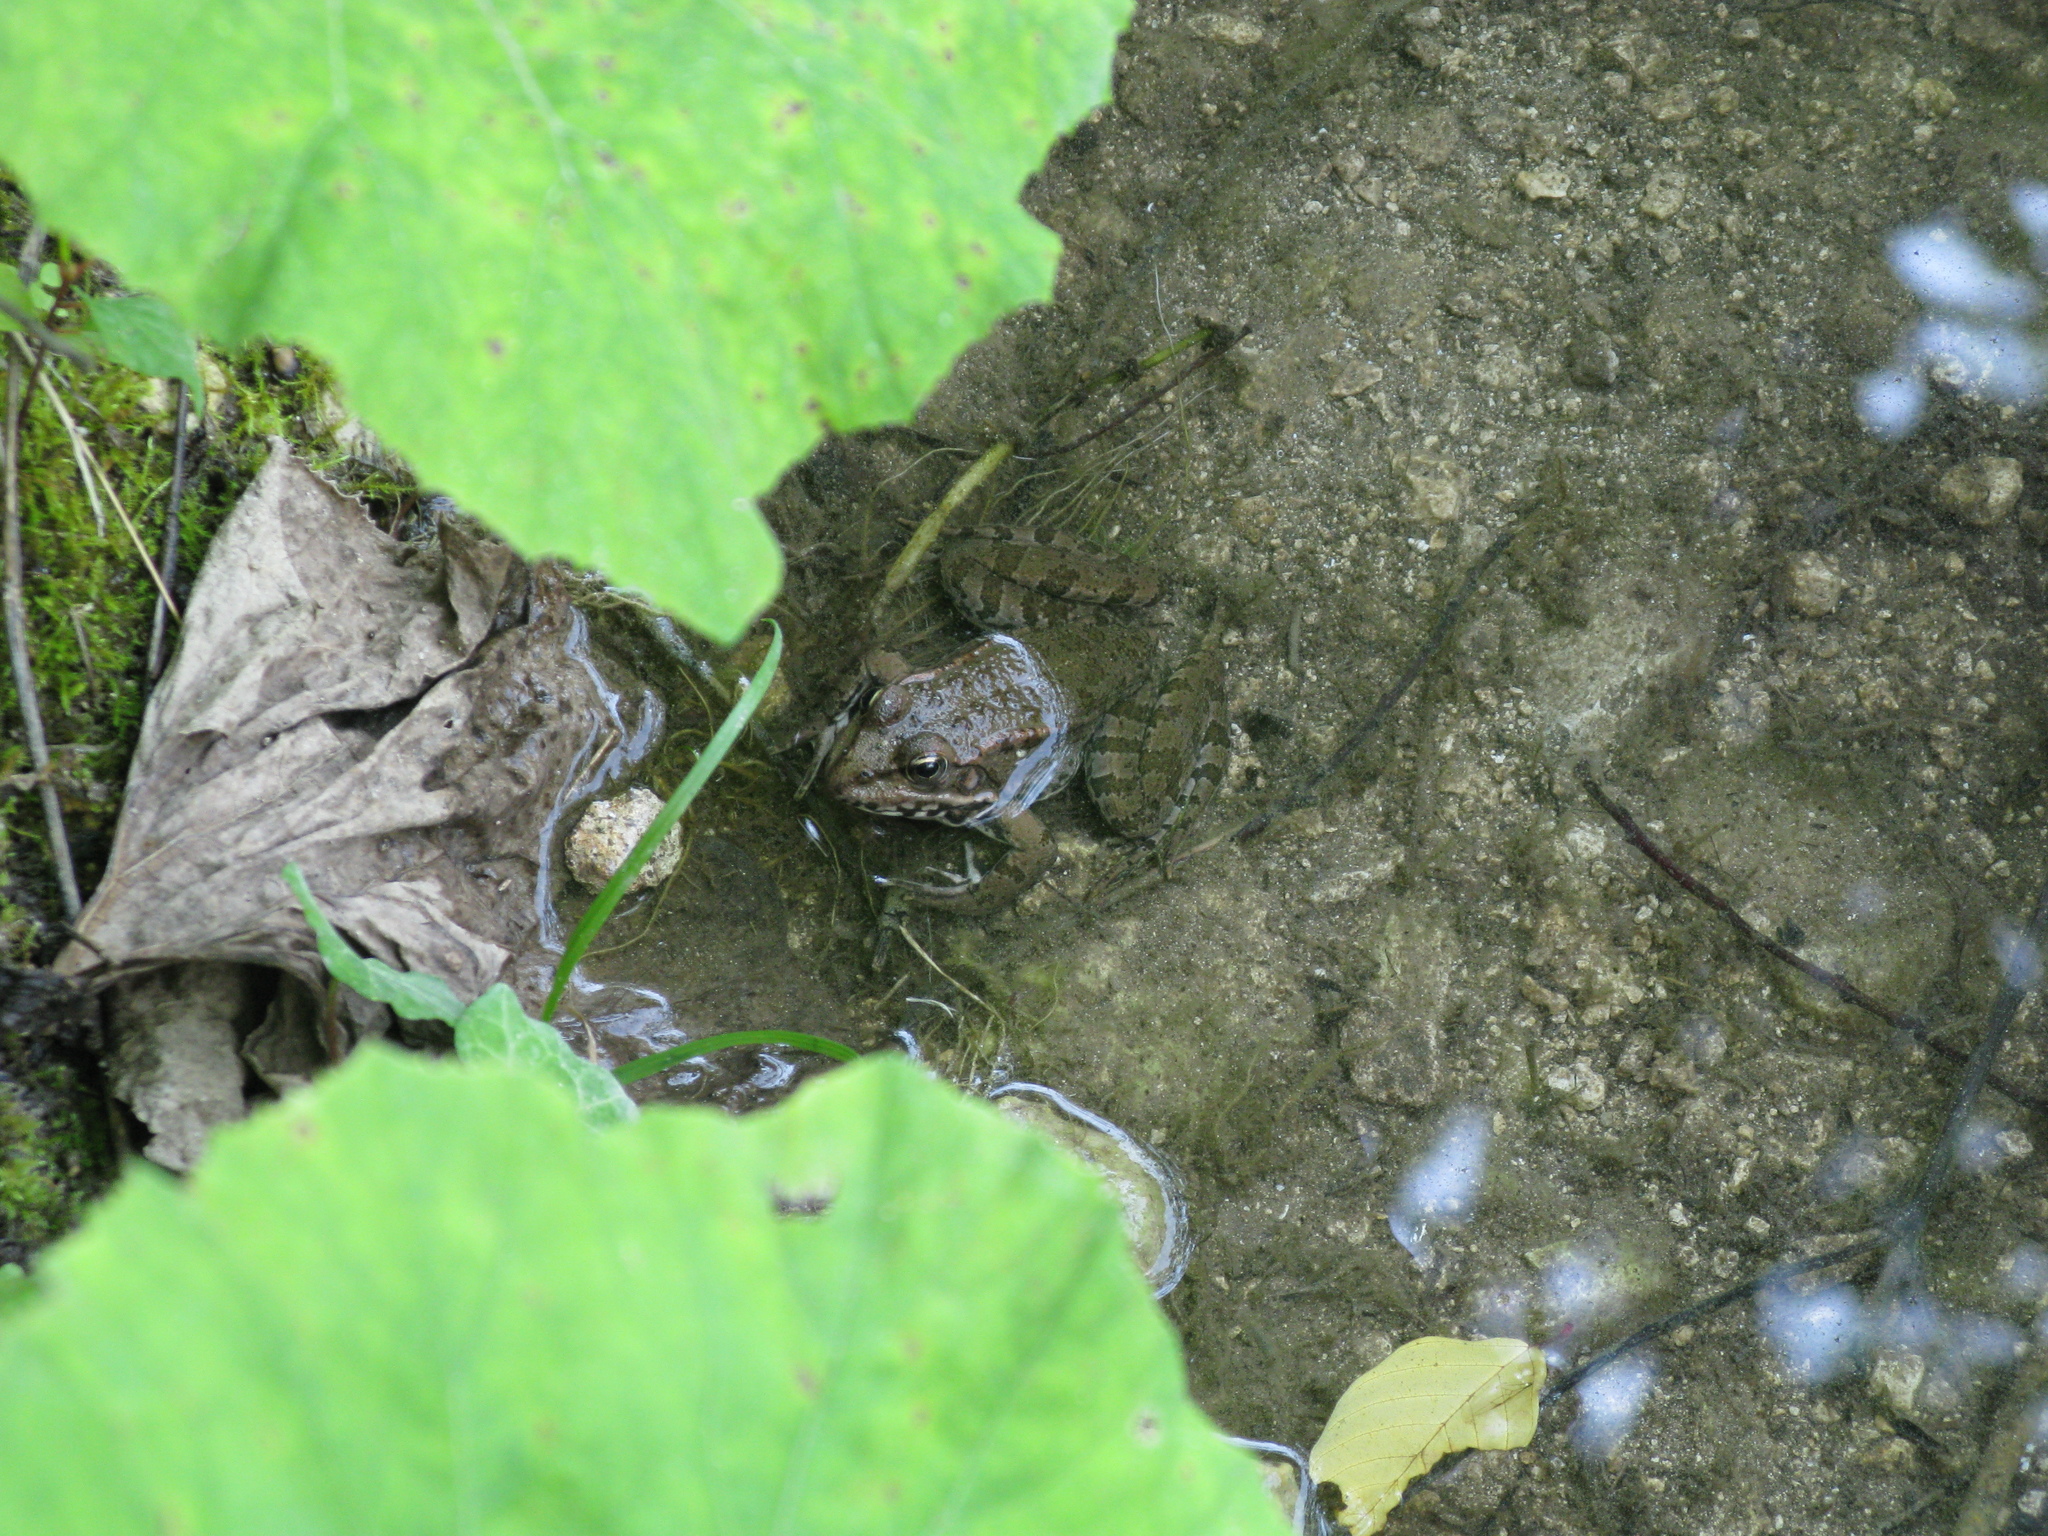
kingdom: Animalia
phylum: Chordata
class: Amphibia
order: Anura
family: Ranidae
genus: Pelophylax
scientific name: Pelophylax ridibundus
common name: Marsh frog
